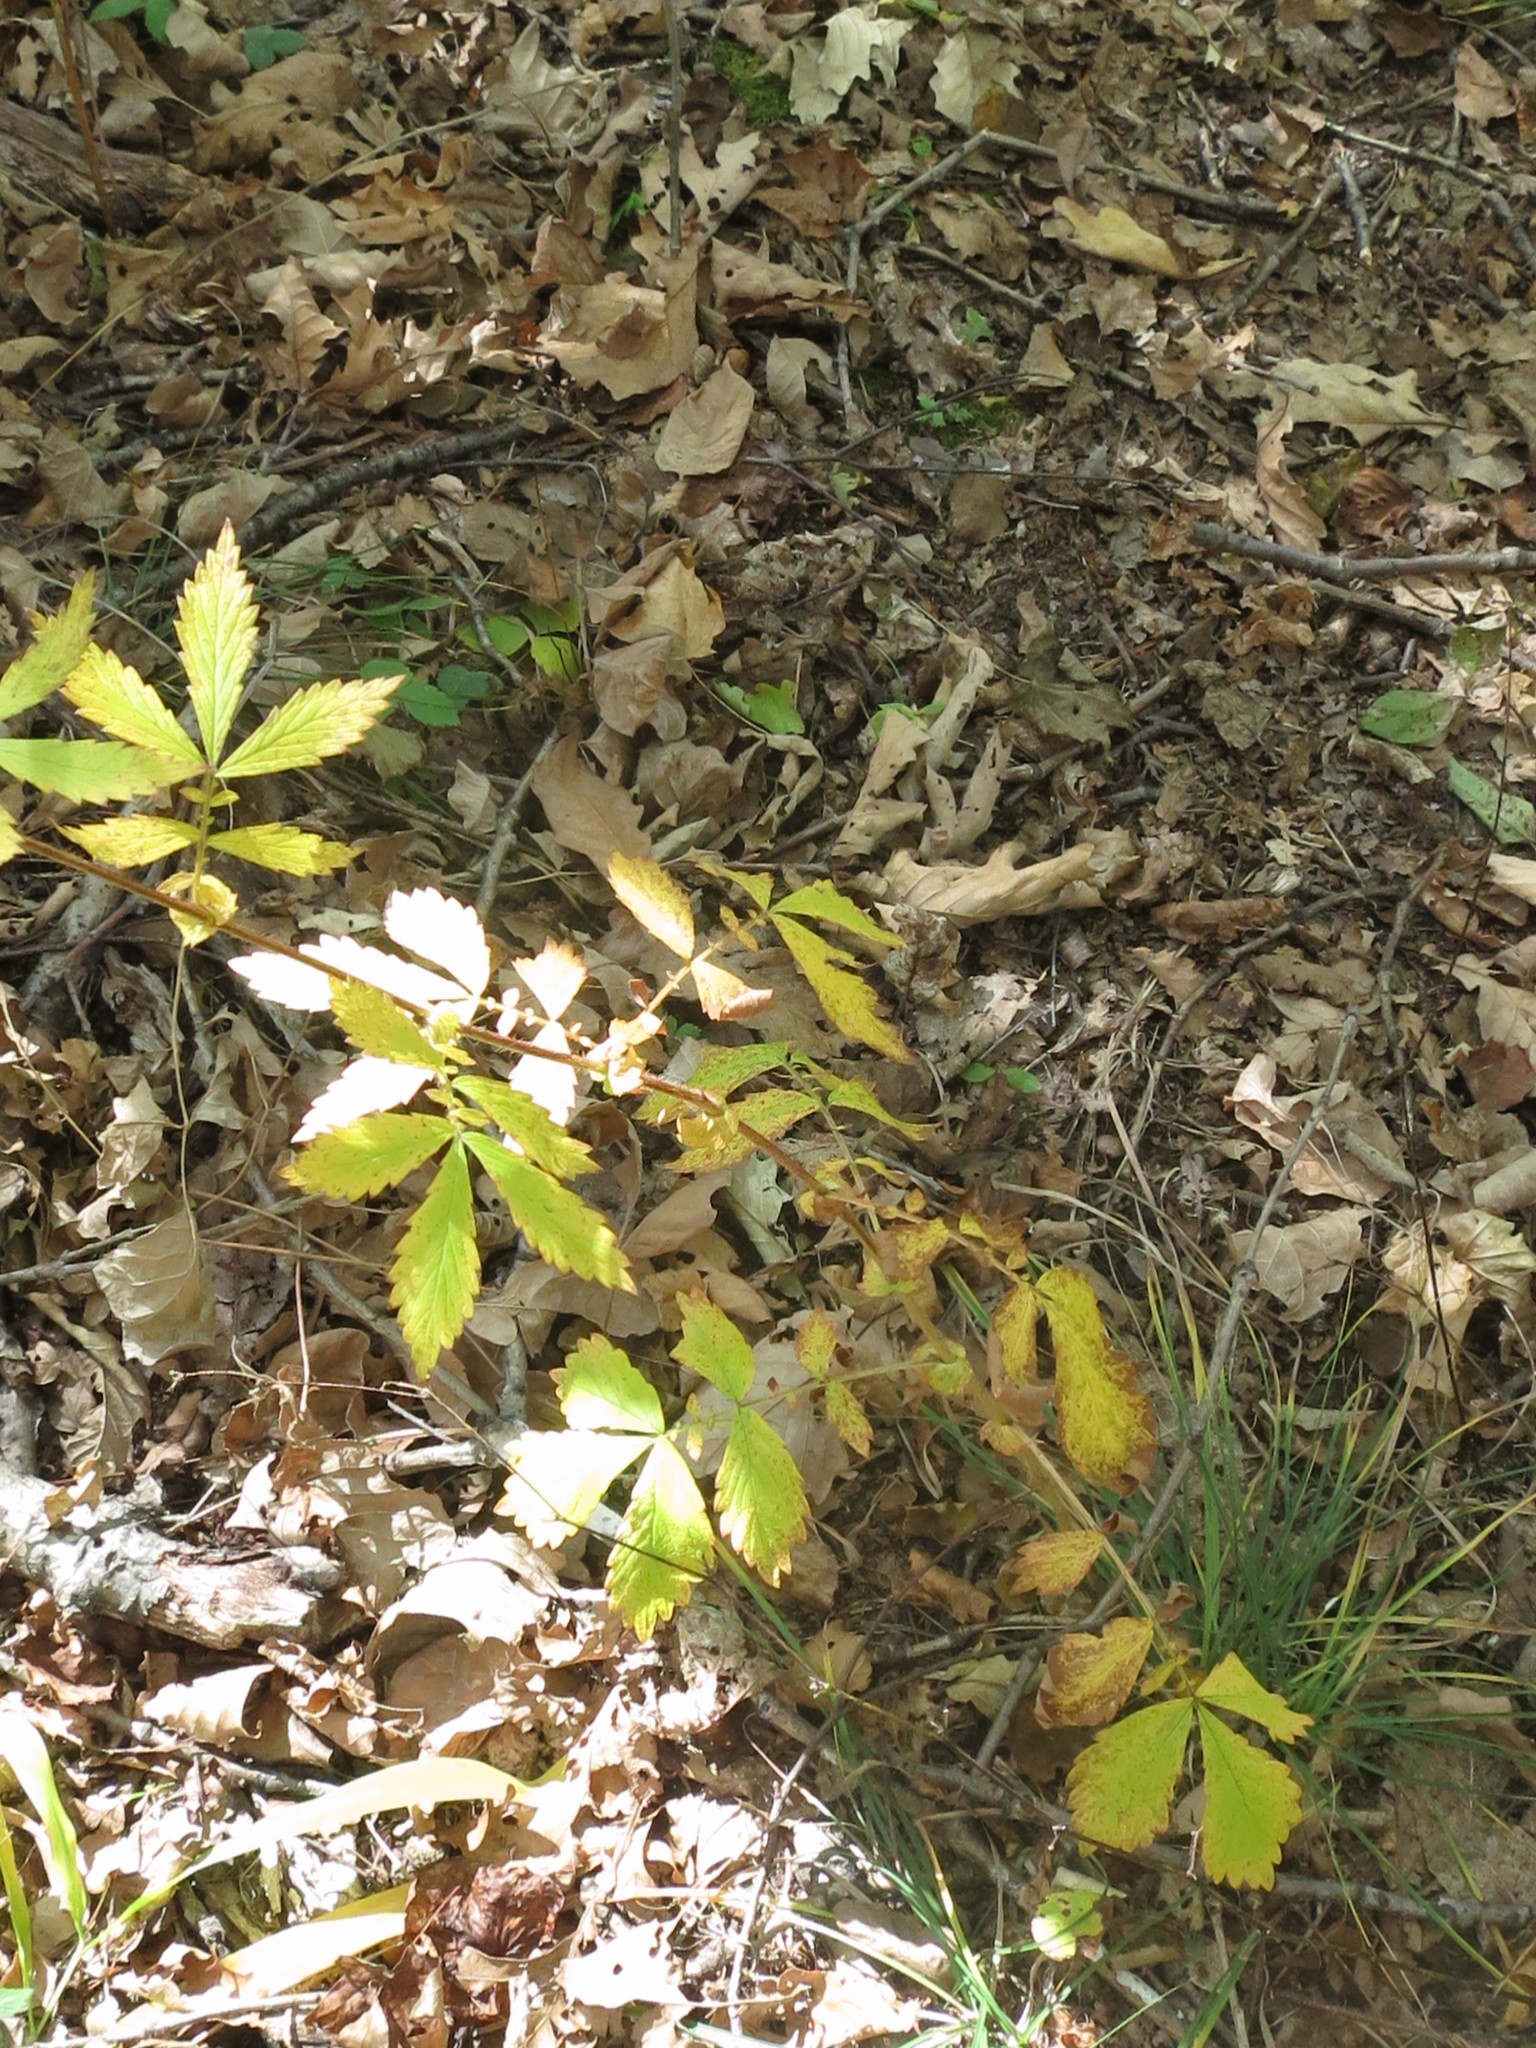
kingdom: Plantae
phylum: Tracheophyta
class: Magnoliopsida
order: Rosales
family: Rosaceae
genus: Agrimonia
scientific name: Agrimonia pilosa
